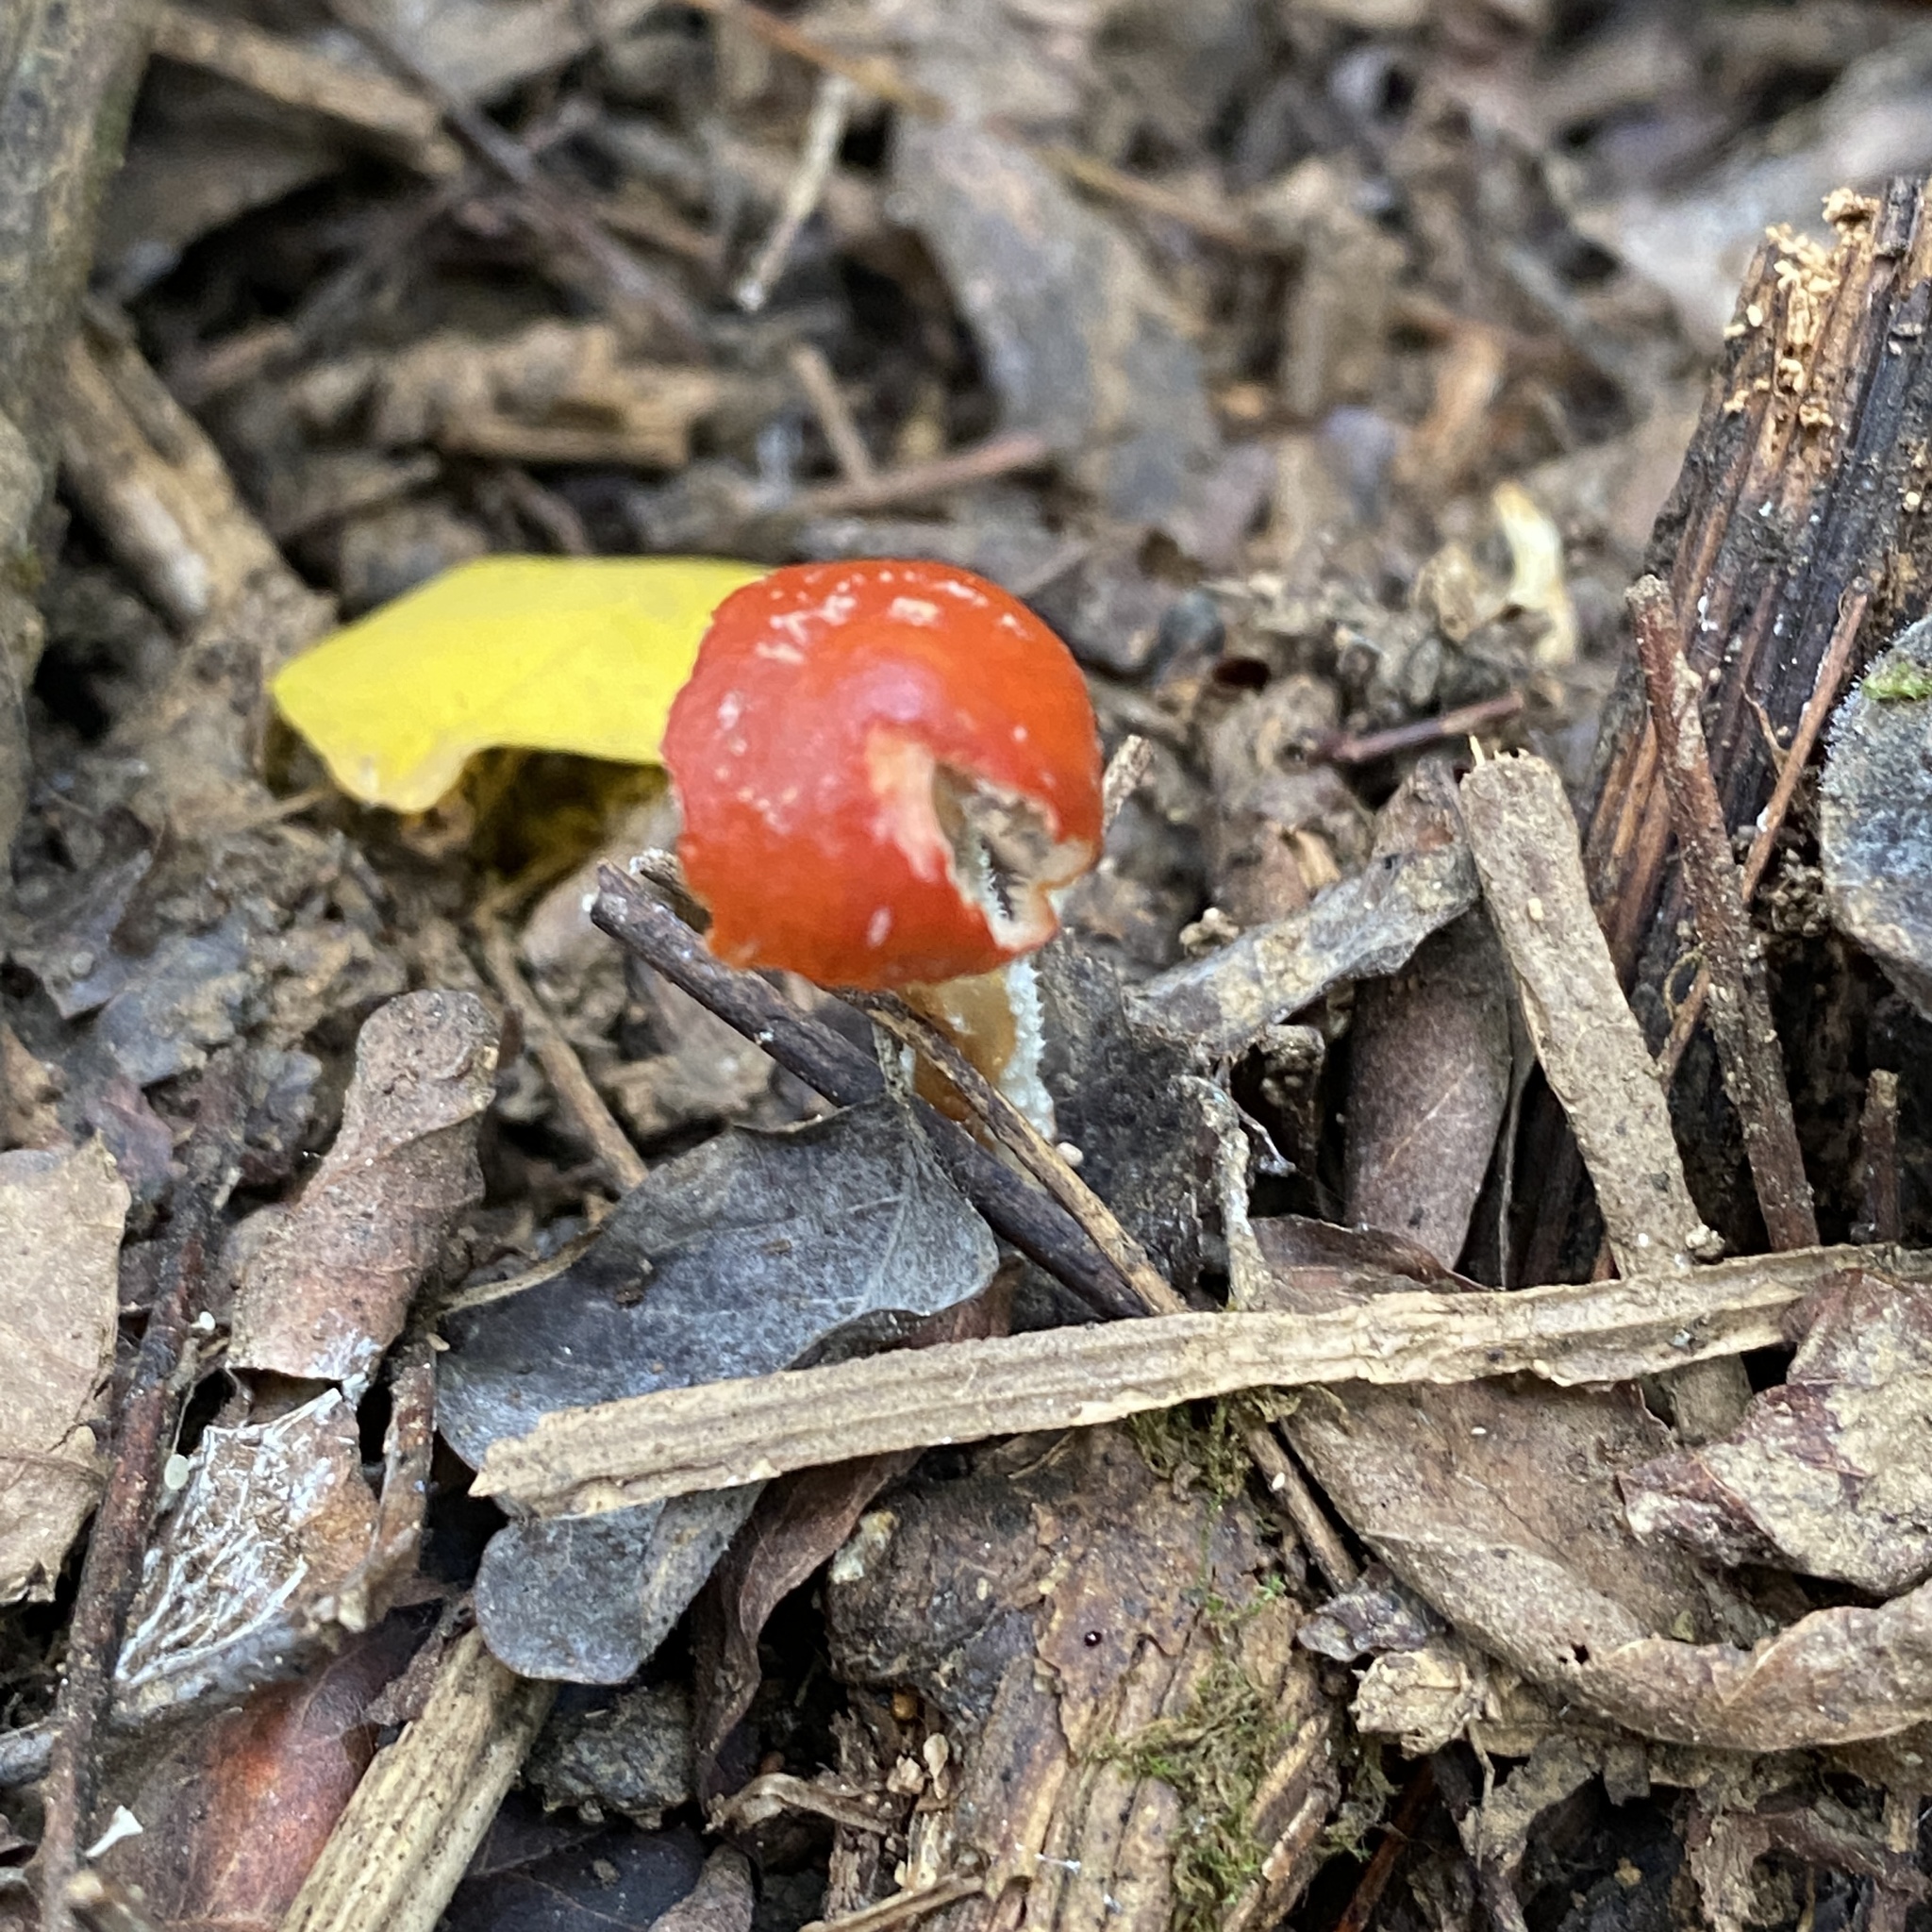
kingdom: Fungi
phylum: Basidiomycota
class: Agaricomycetes
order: Agaricales
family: Strophariaceae
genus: Leratiomyces
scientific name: Leratiomyces ceres
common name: Redlead roundhead
